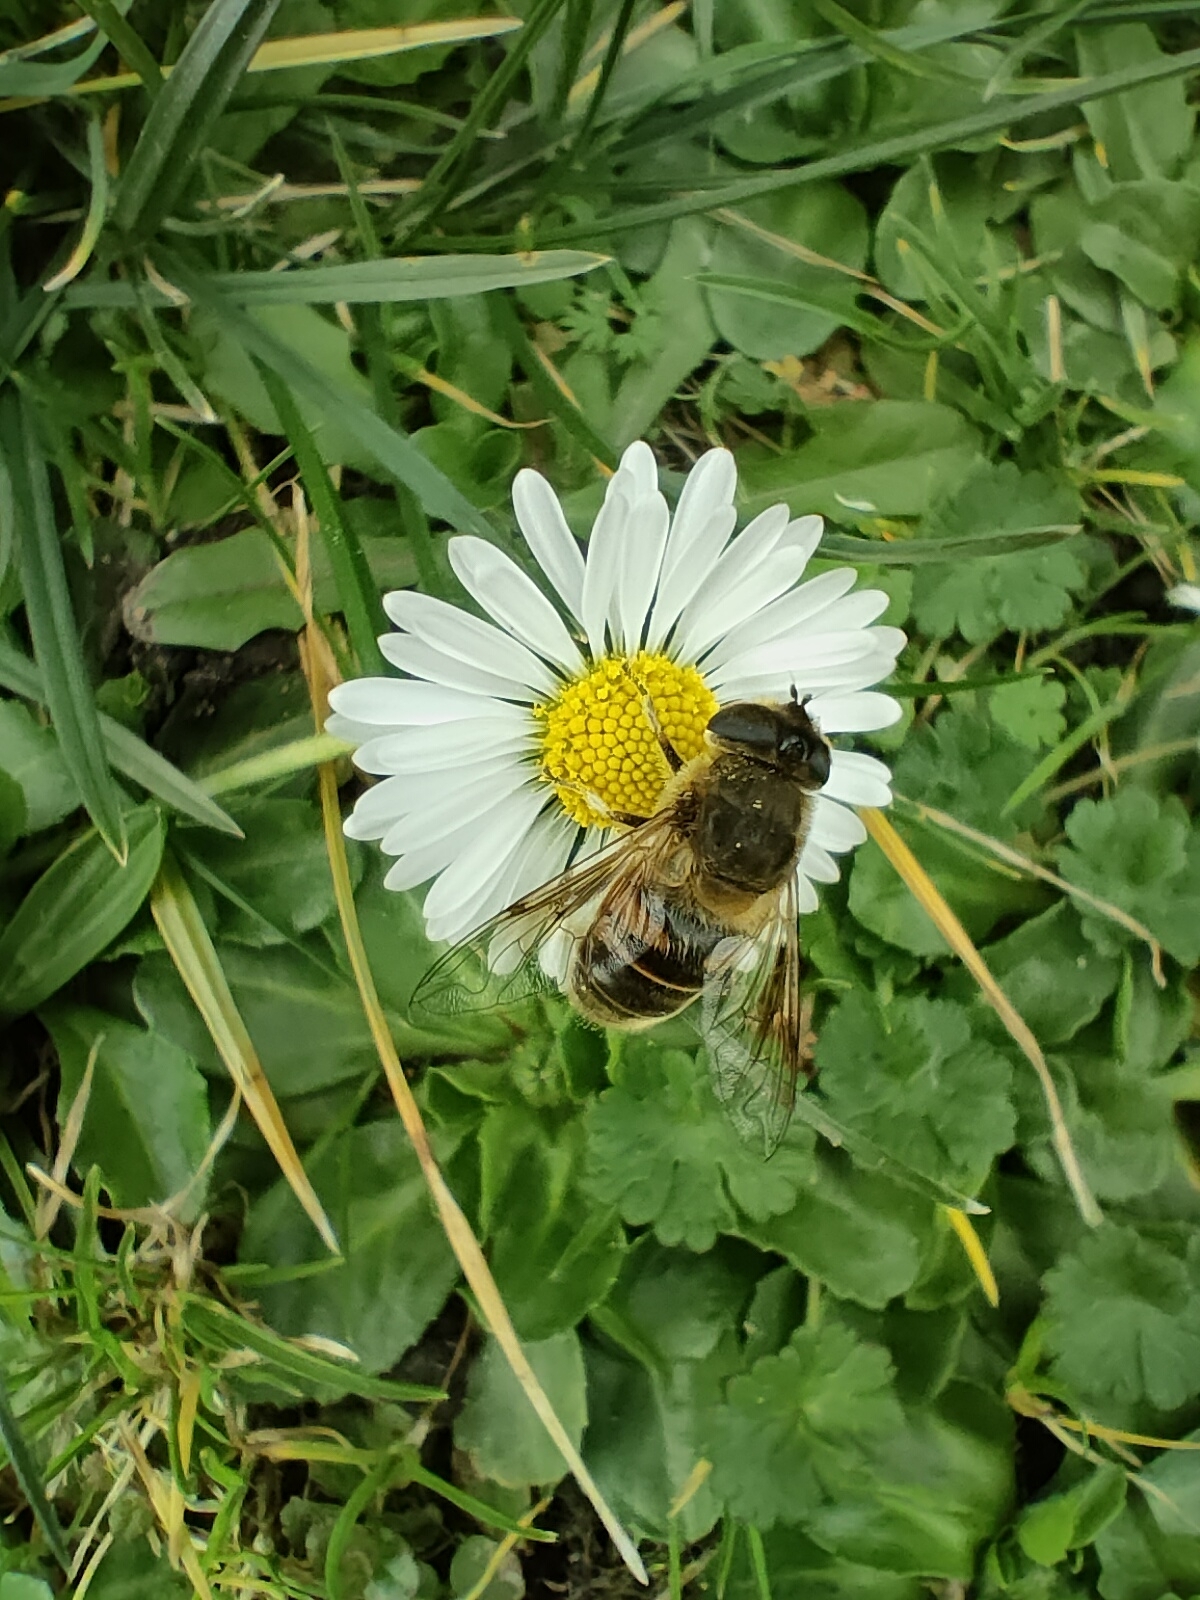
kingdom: Animalia
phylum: Arthropoda
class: Insecta
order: Diptera
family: Syrphidae
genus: Eristalis
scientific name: Eristalis tenax
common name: Drone fly
